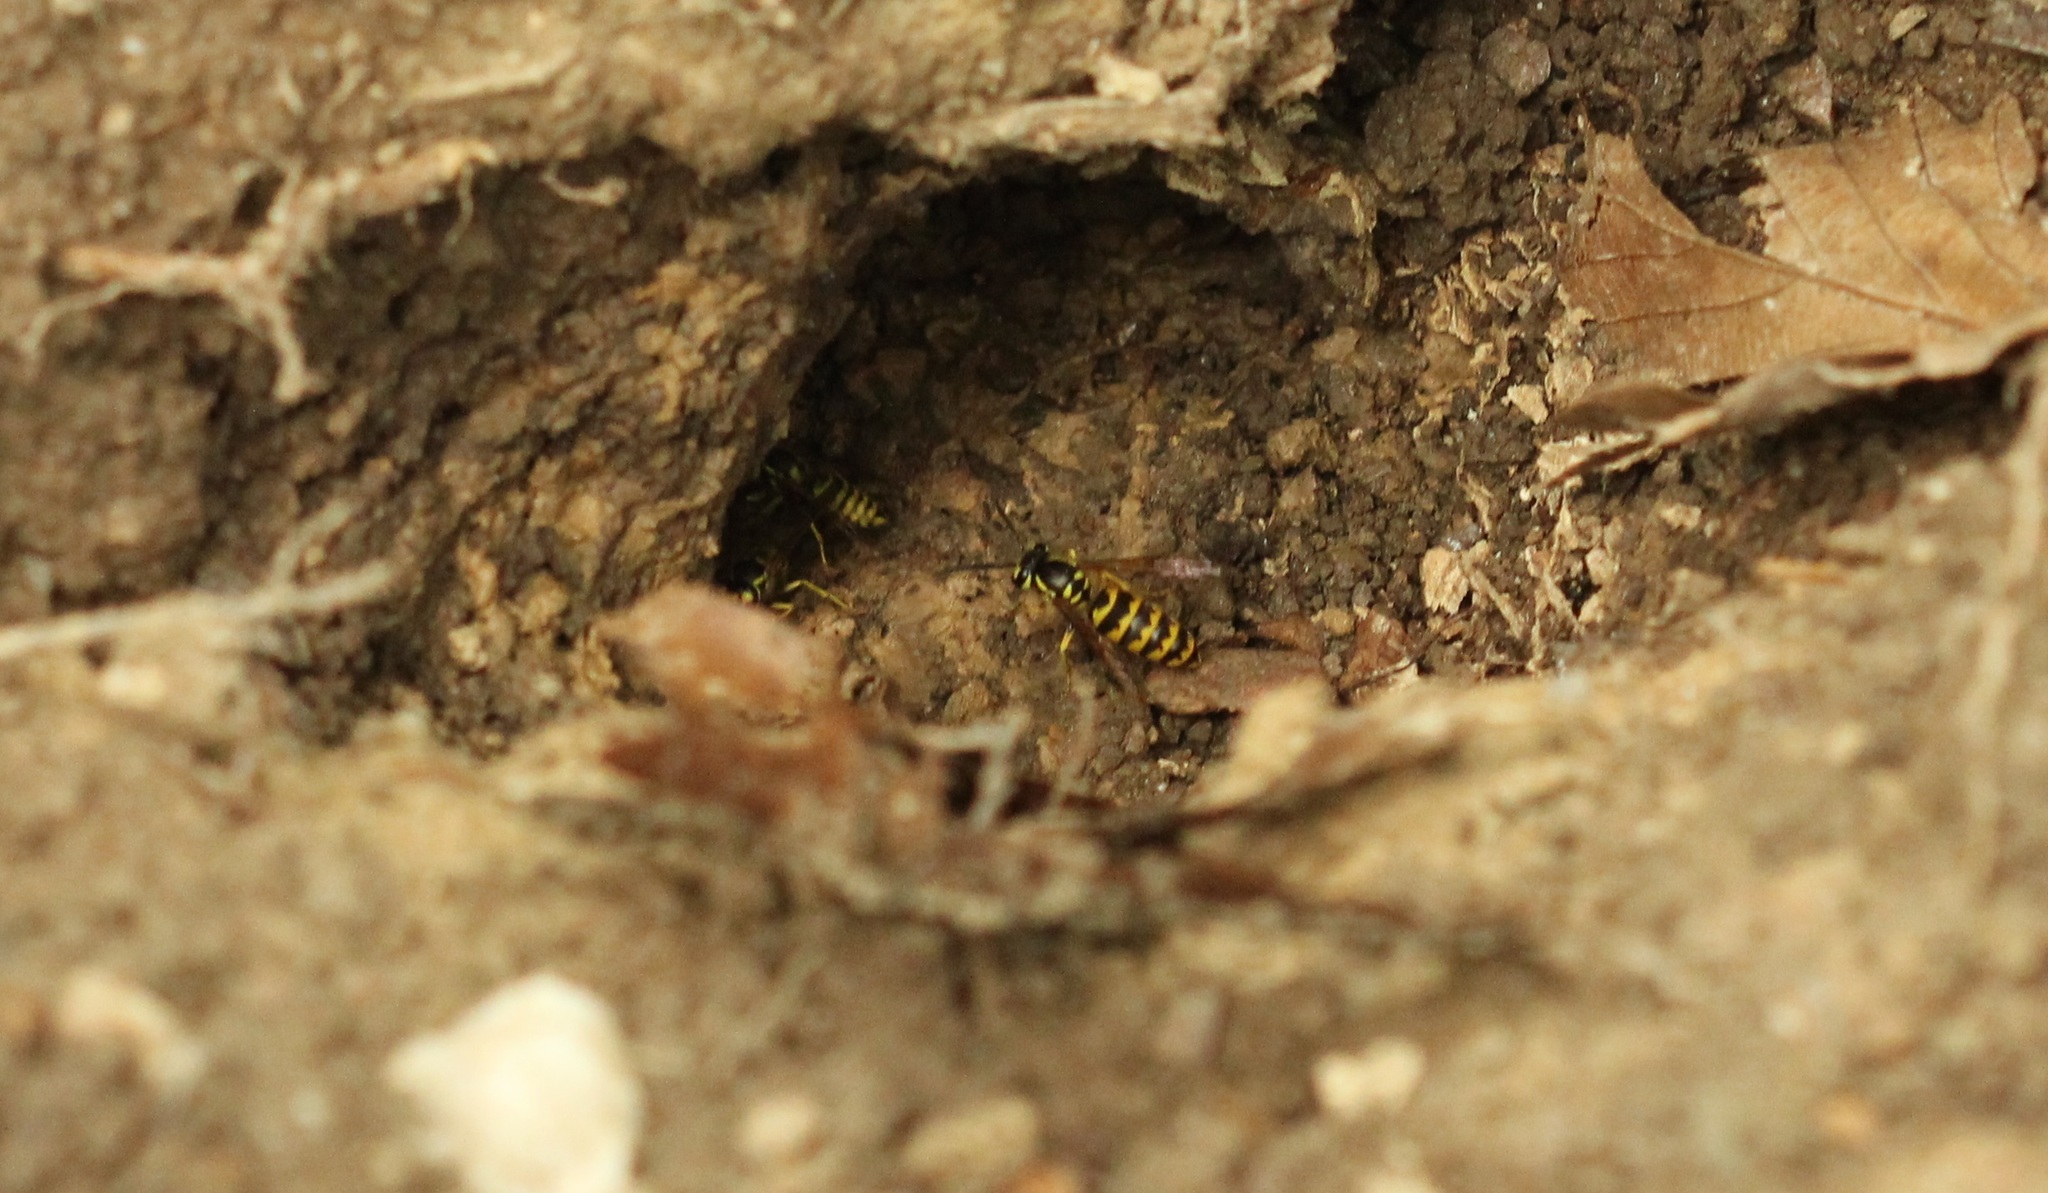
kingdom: Animalia
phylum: Arthropoda
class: Insecta
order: Hymenoptera
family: Vespidae
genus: Vespula
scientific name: Vespula flavopilosa
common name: Downy yellowjacket
